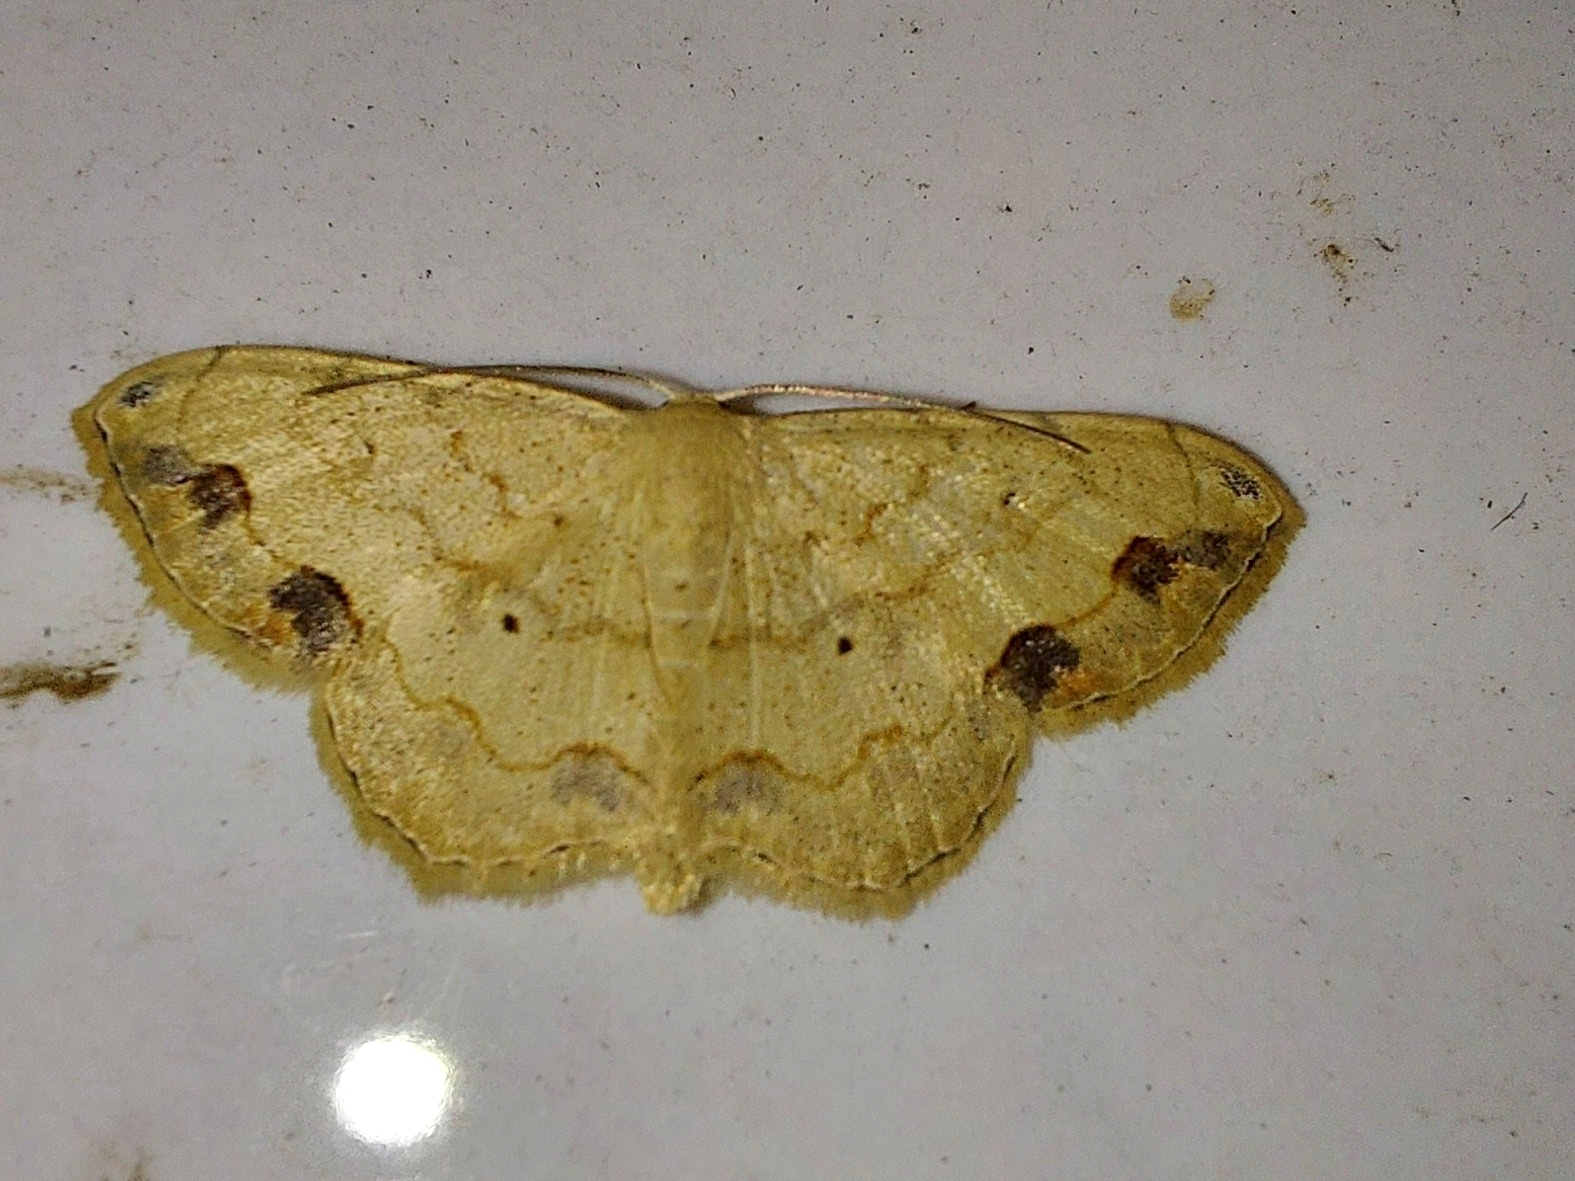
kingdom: Animalia
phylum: Arthropoda
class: Insecta
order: Lepidoptera
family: Geometridae
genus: Scopula
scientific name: Scopula addictaria
